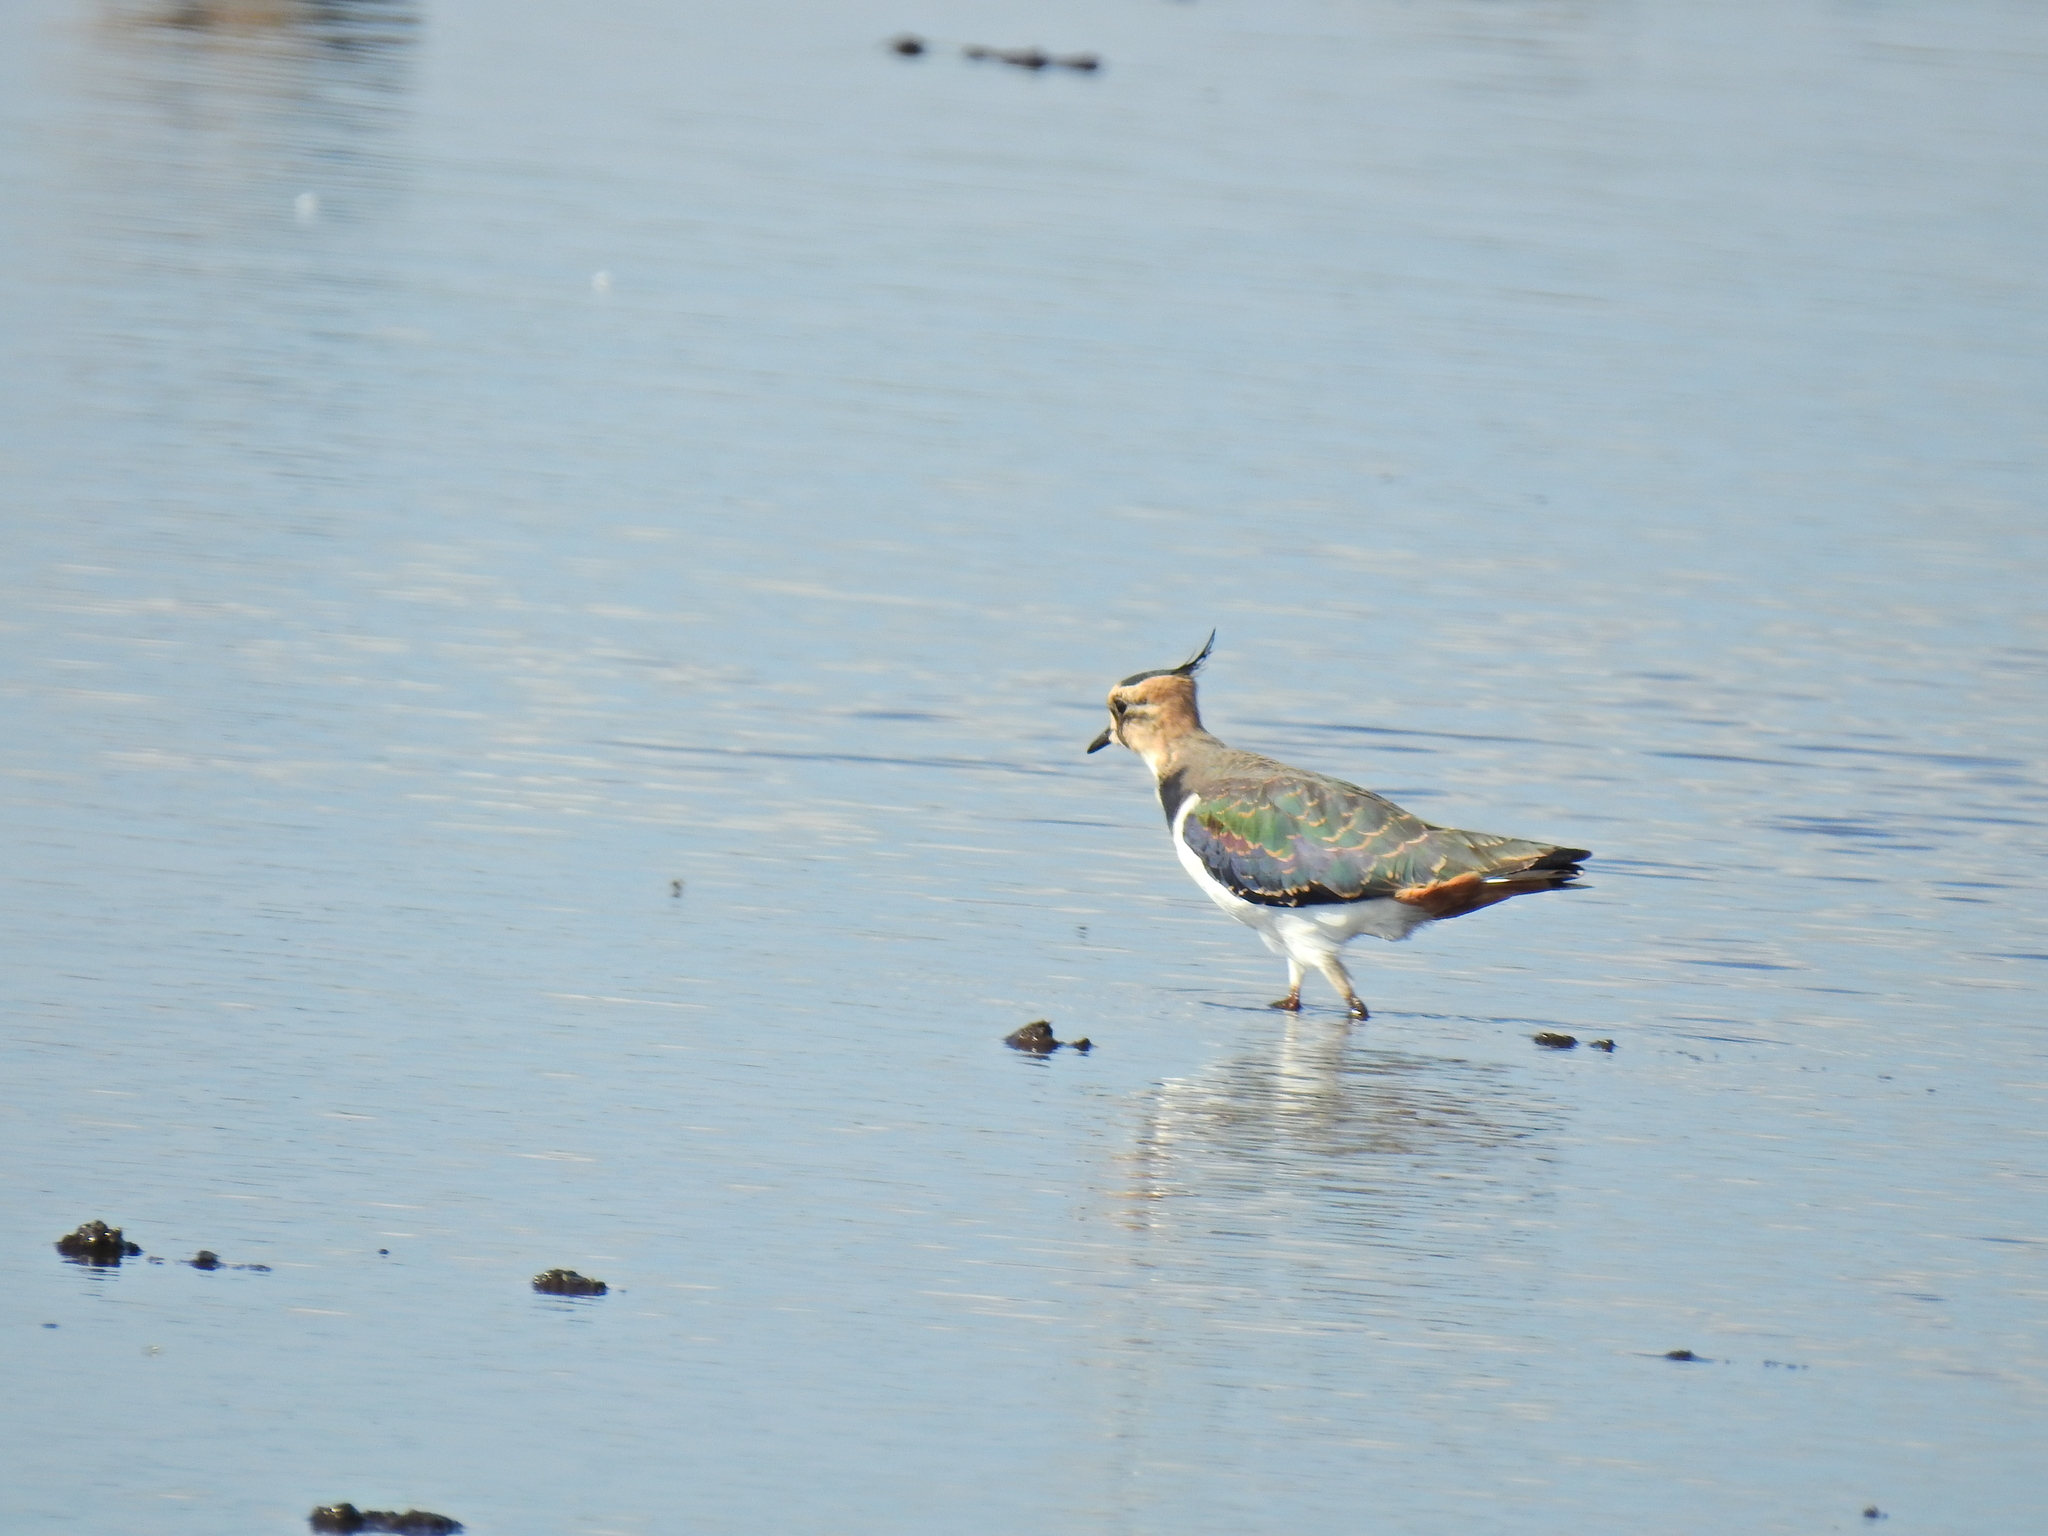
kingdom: Animalia
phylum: Chordata
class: Aves
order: Charadriiformes
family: Charadriidae
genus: Vanellus
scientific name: Vanellus vanellus
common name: Northern lapwing
